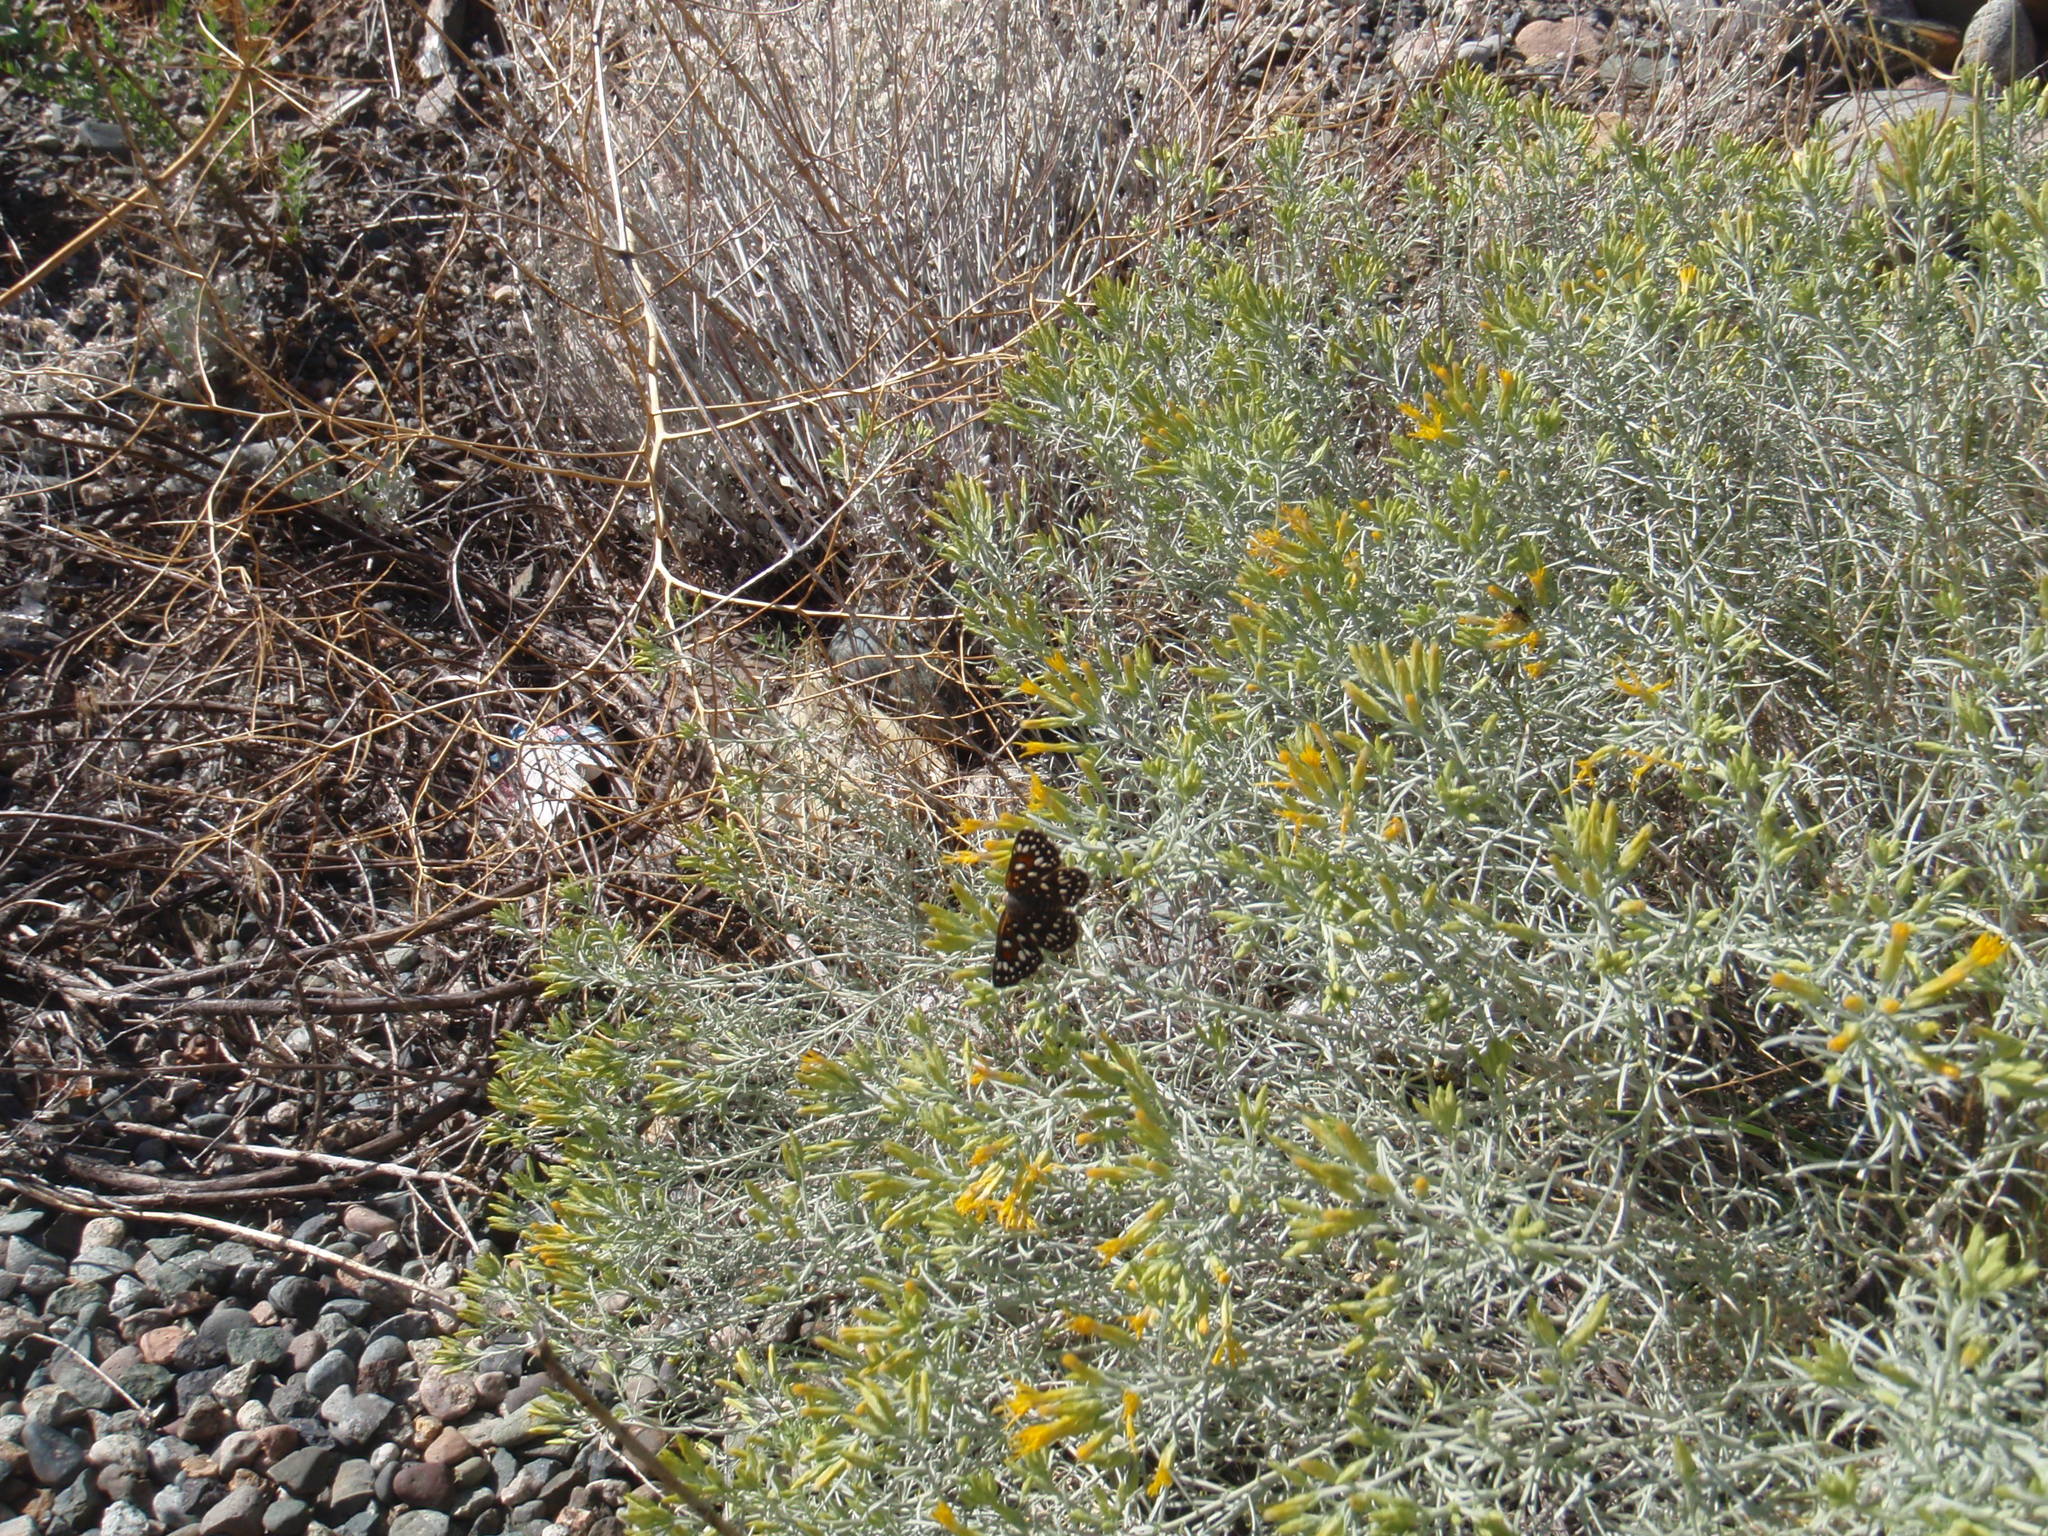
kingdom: Animalia
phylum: Arthropoda
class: Insecta
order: Lepidoptera
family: Riodinidae
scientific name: Riodinidae
